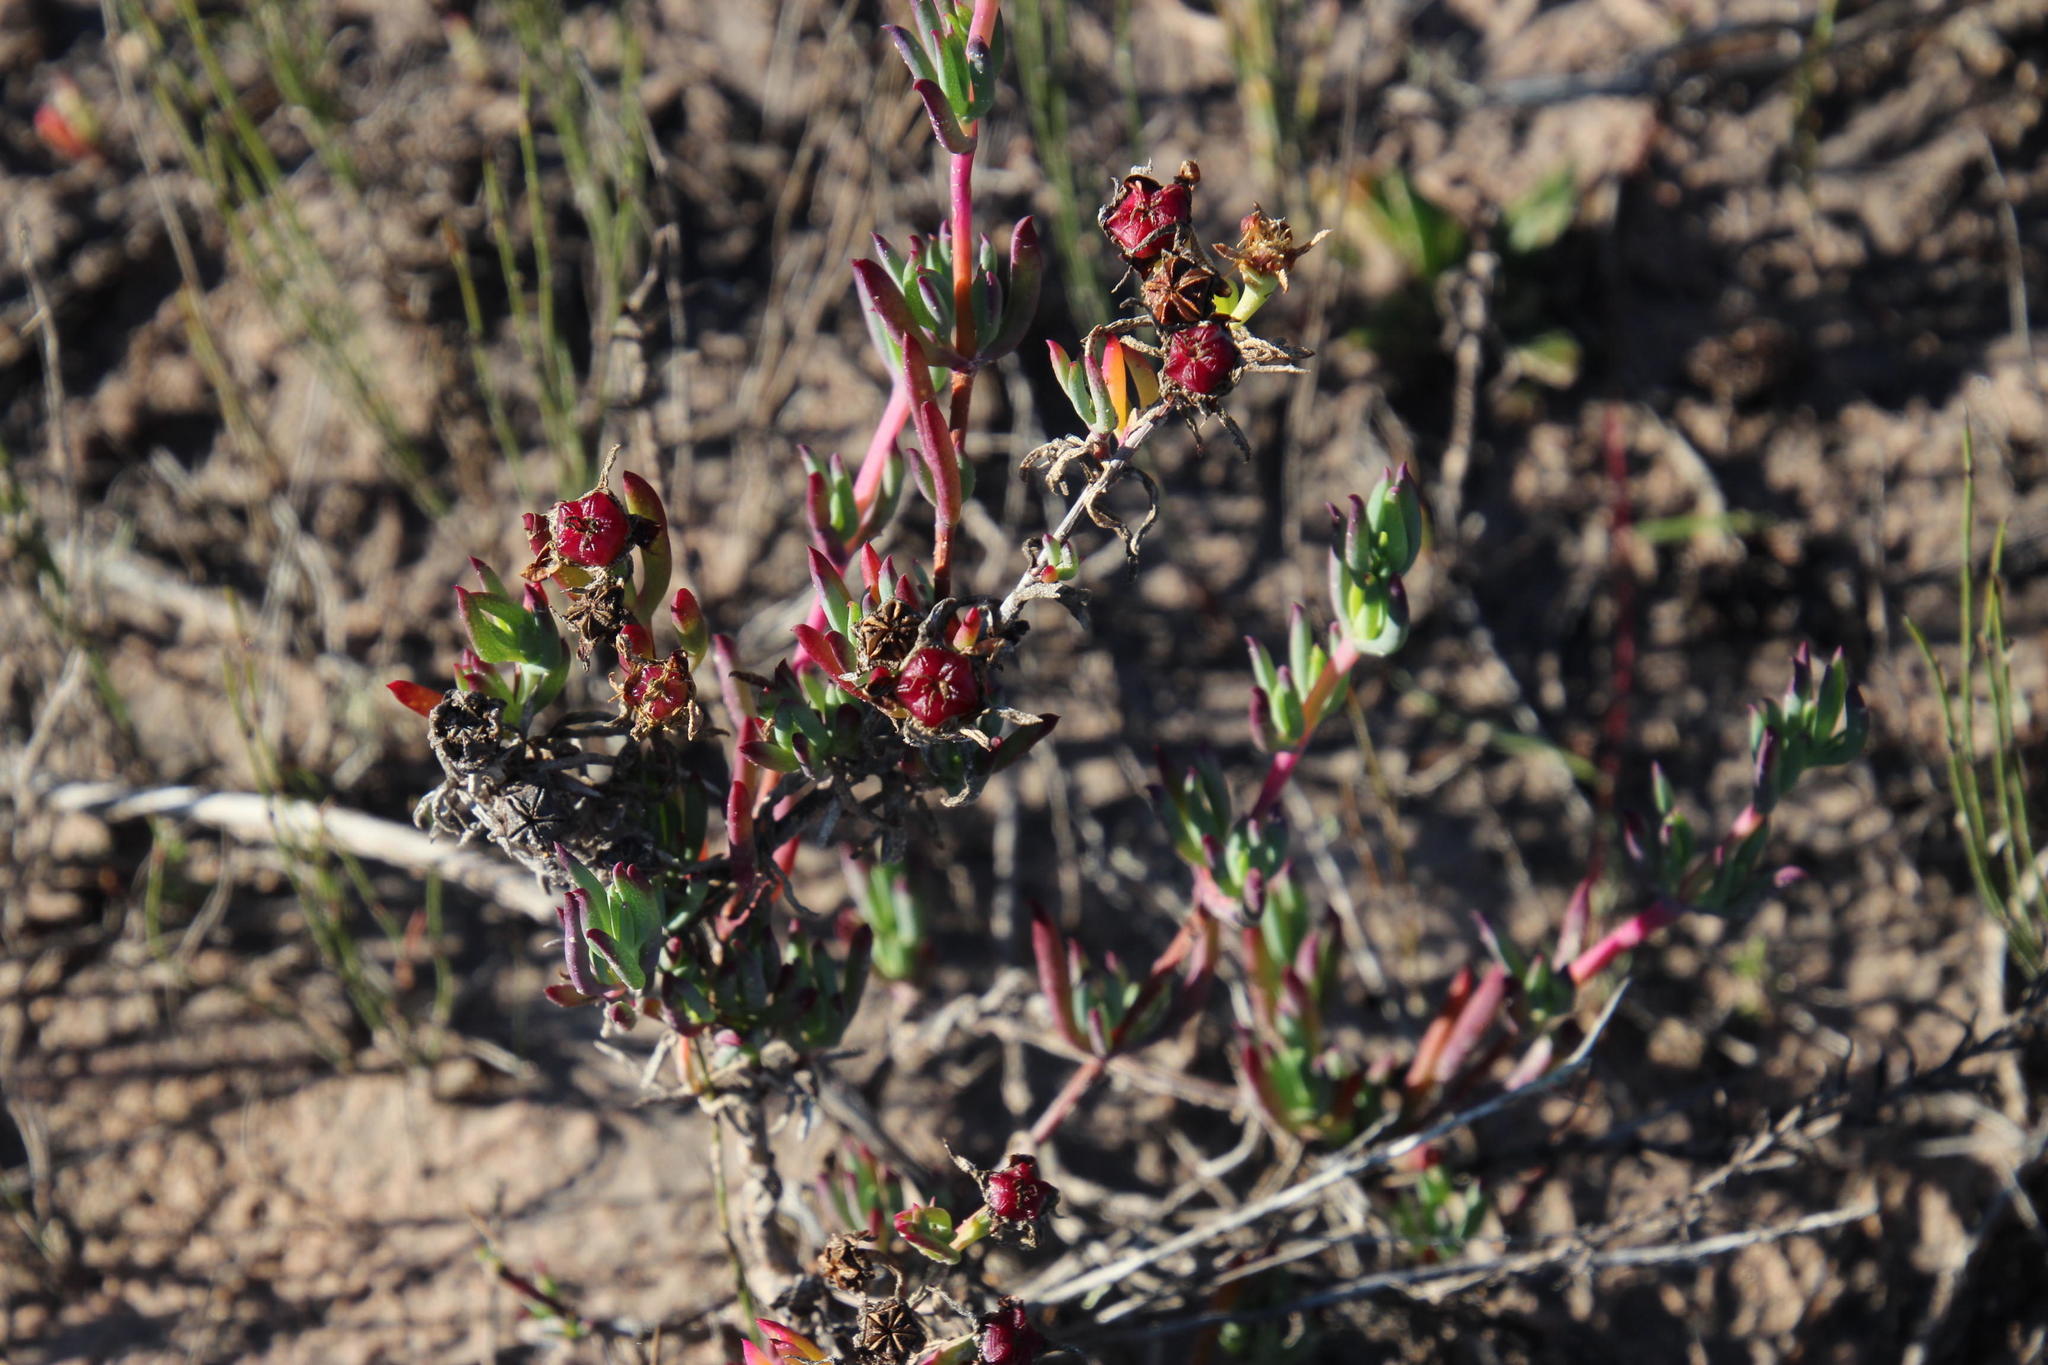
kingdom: Plantae
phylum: Tracheophyta
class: Magnoliopsida
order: Caryophyllales
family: Aizoaceae
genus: Lampranthus
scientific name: Lampranthus productus
